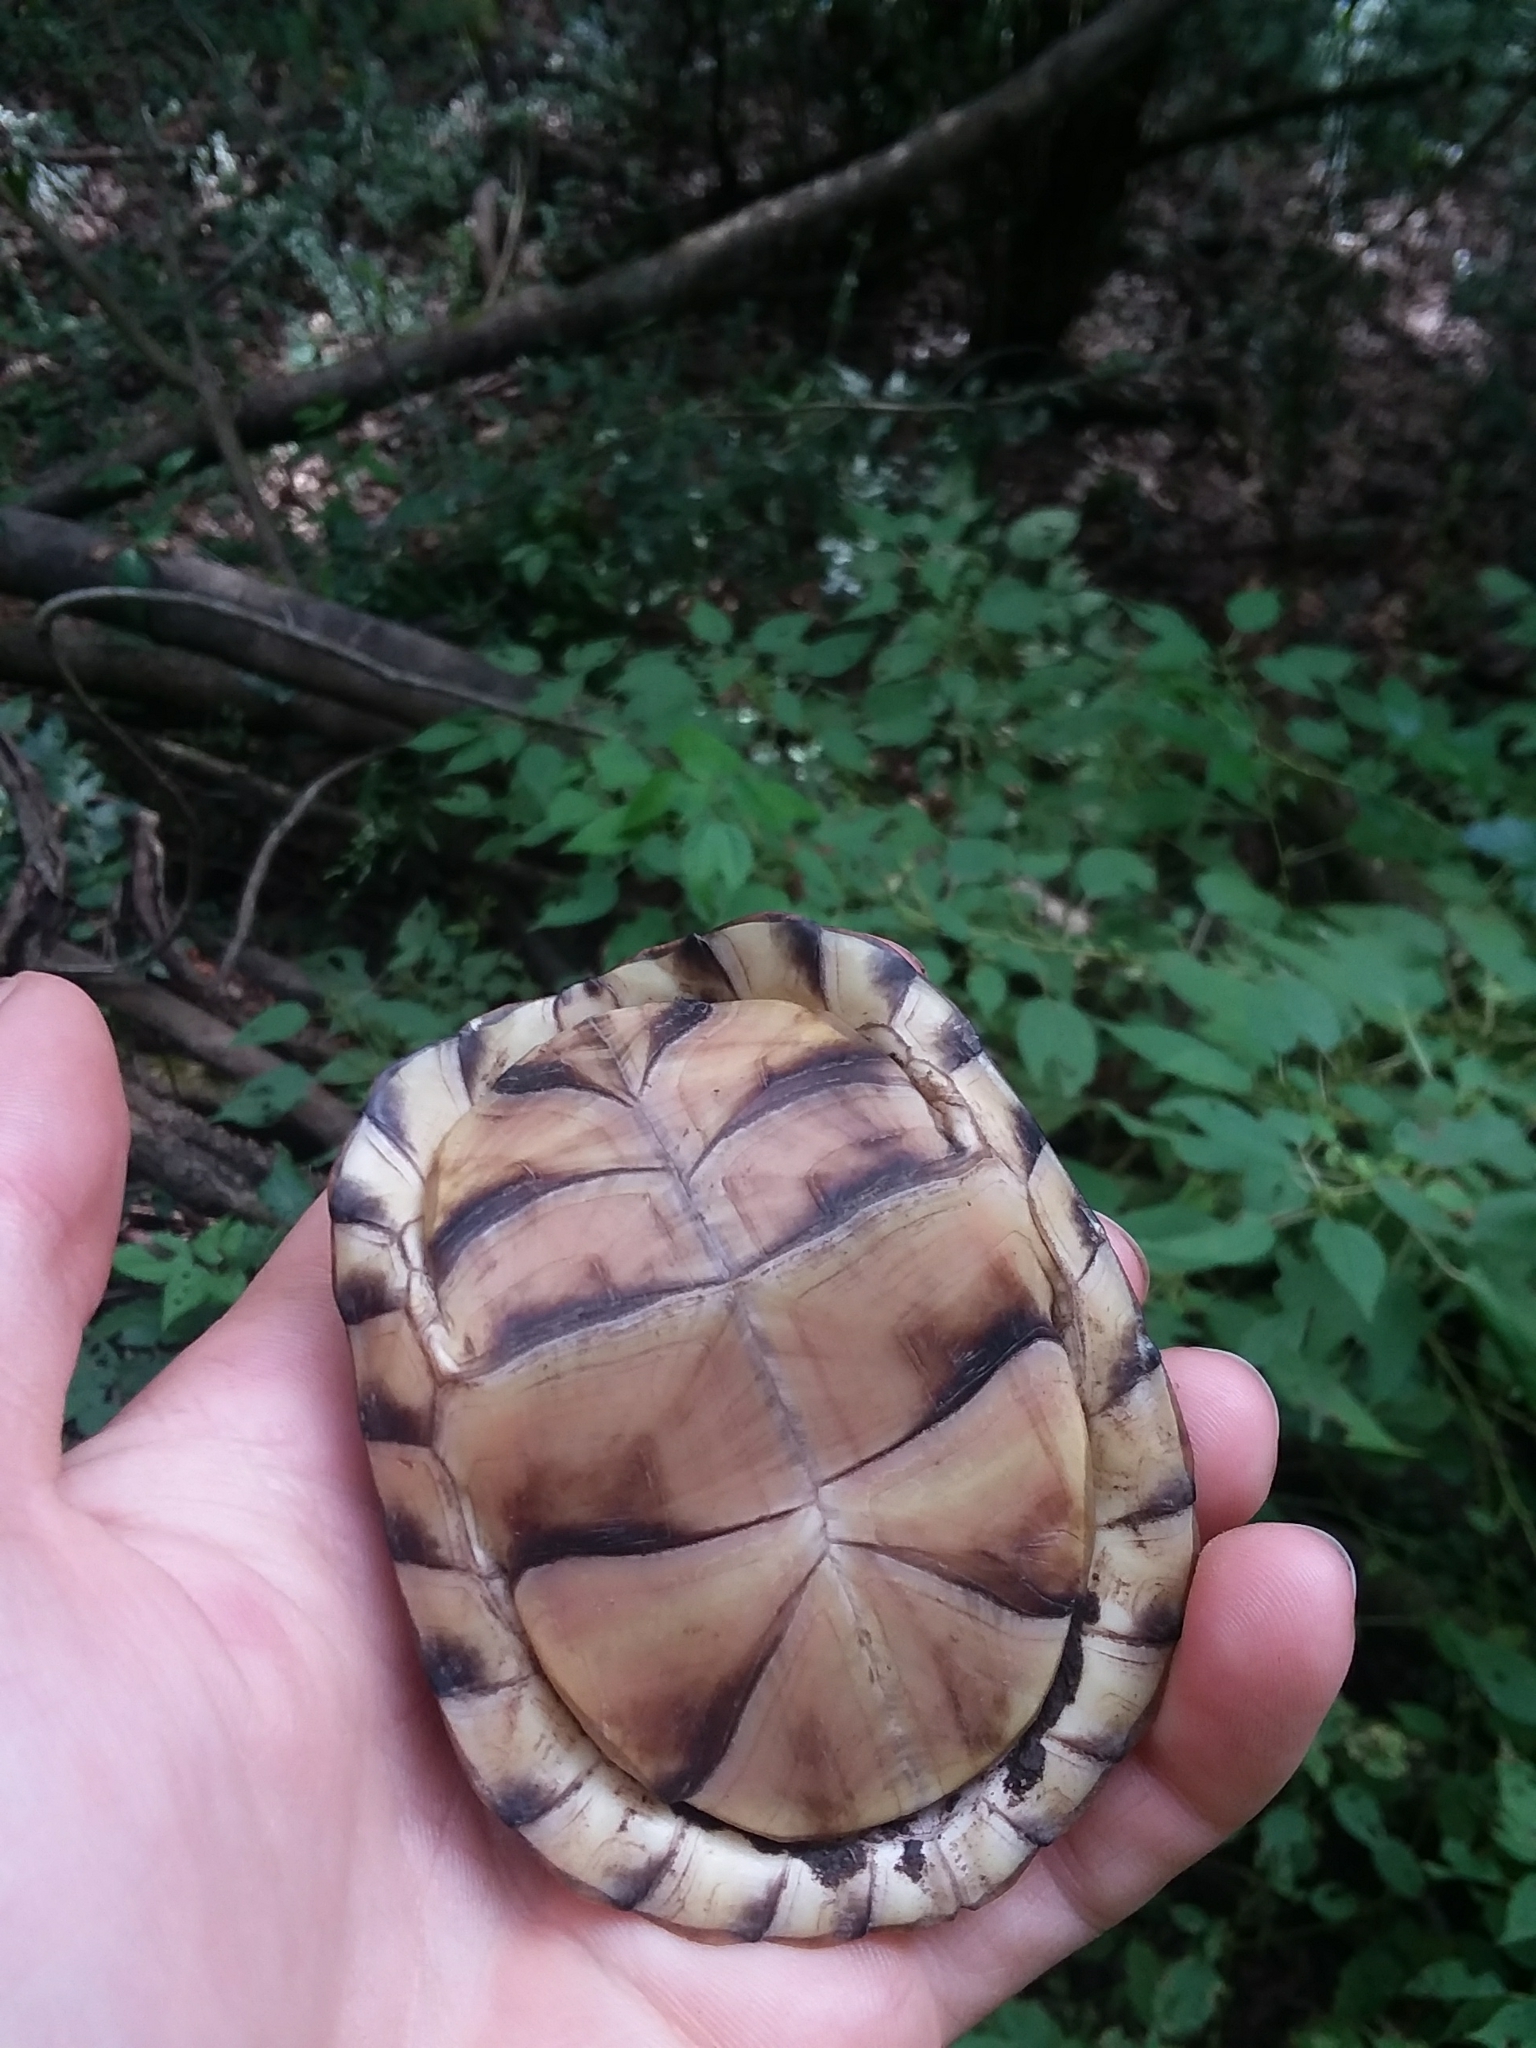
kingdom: Animalia
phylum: Chordata
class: Testudines
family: Emydidae
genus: Terrapene
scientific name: Terrapene carolina
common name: Common box turtle
